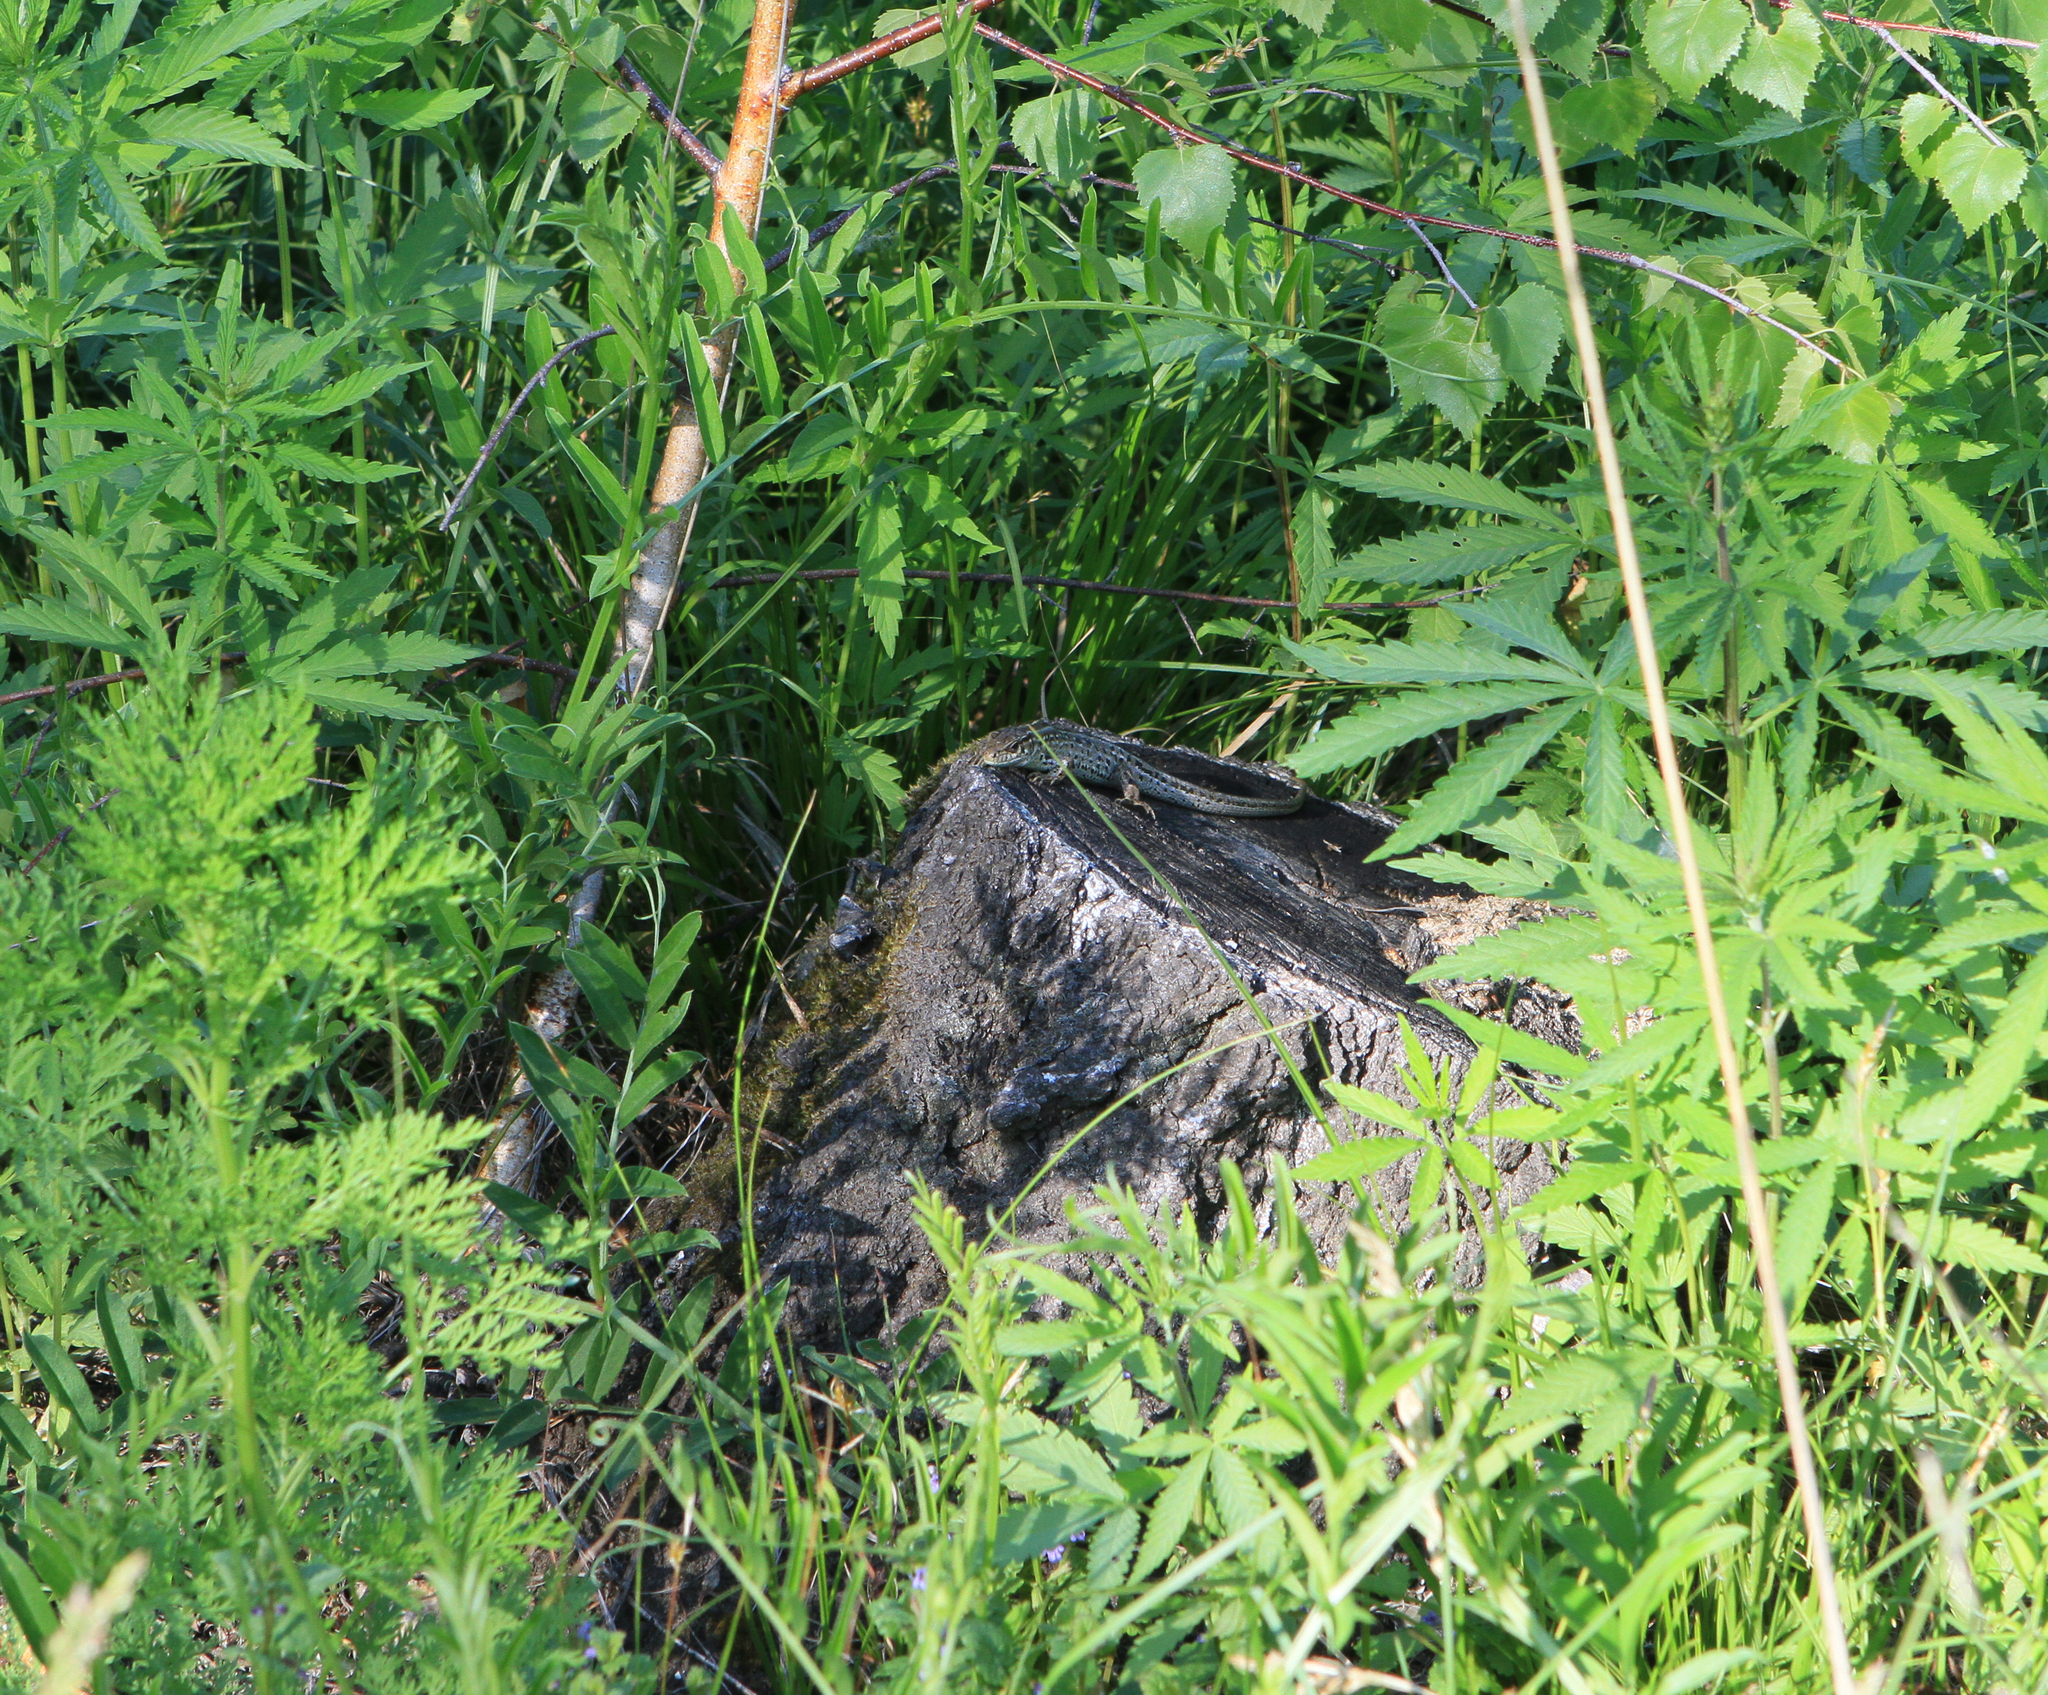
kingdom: Animalia
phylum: Chordata
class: Squamata
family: Lacertidae
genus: Lacerta
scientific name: Lacerta agilis
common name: Sand lizard
